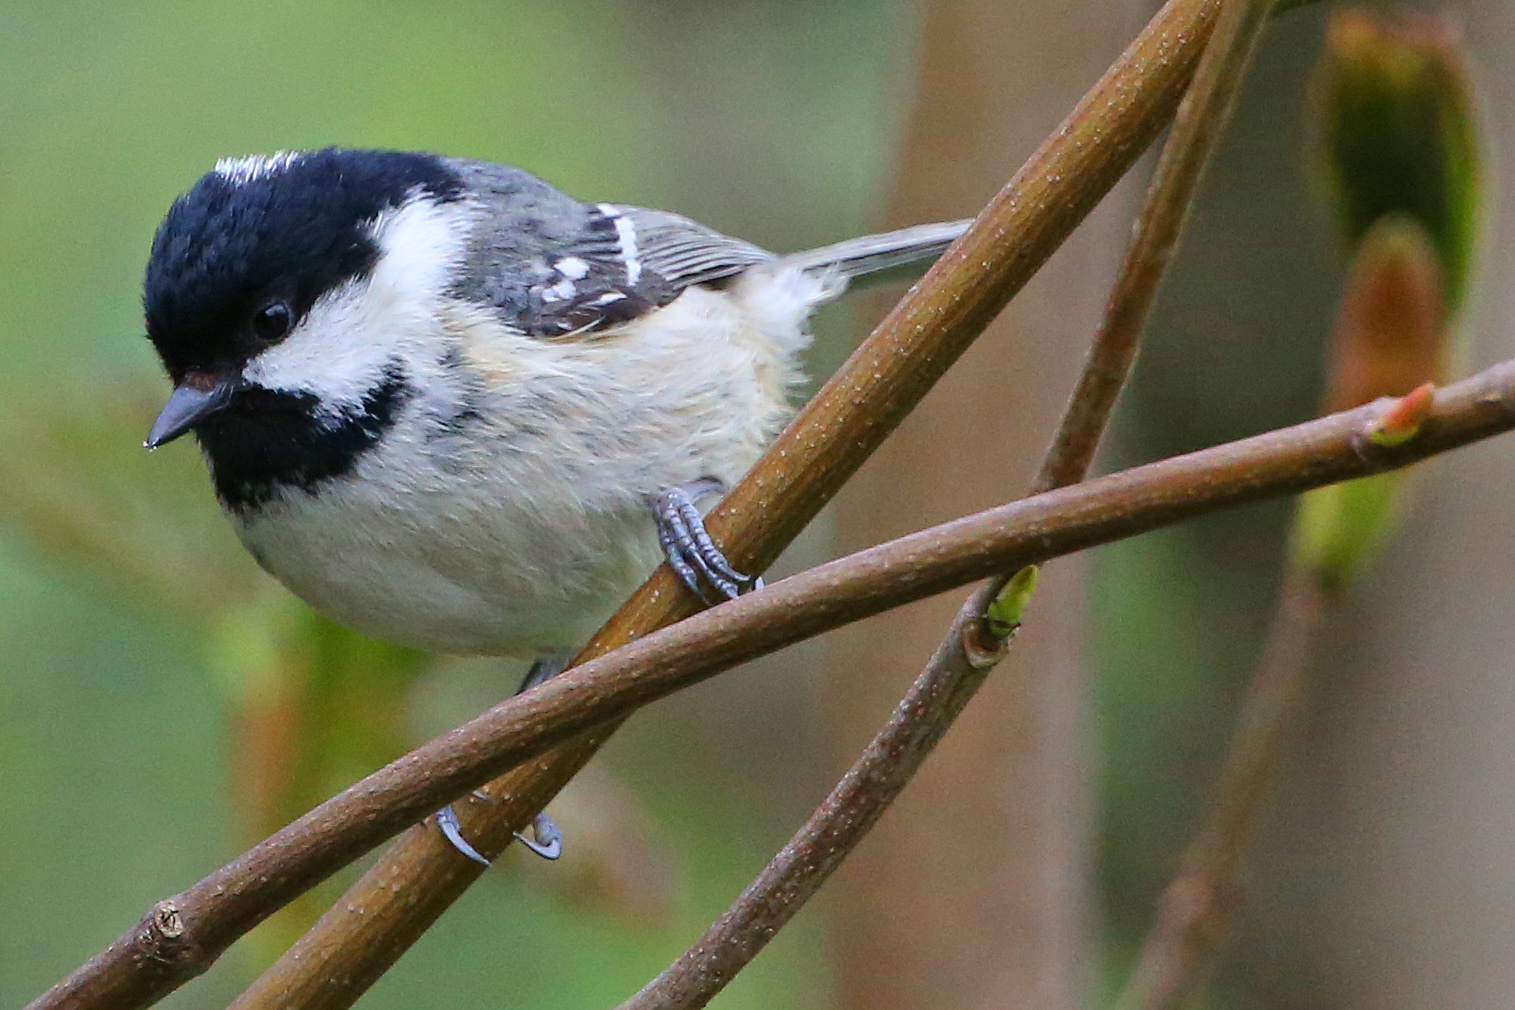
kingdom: Animalia
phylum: Chordata
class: Aves
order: Passeriformes
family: Paridae
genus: Periparus
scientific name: Periparus ater
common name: Coal tit
